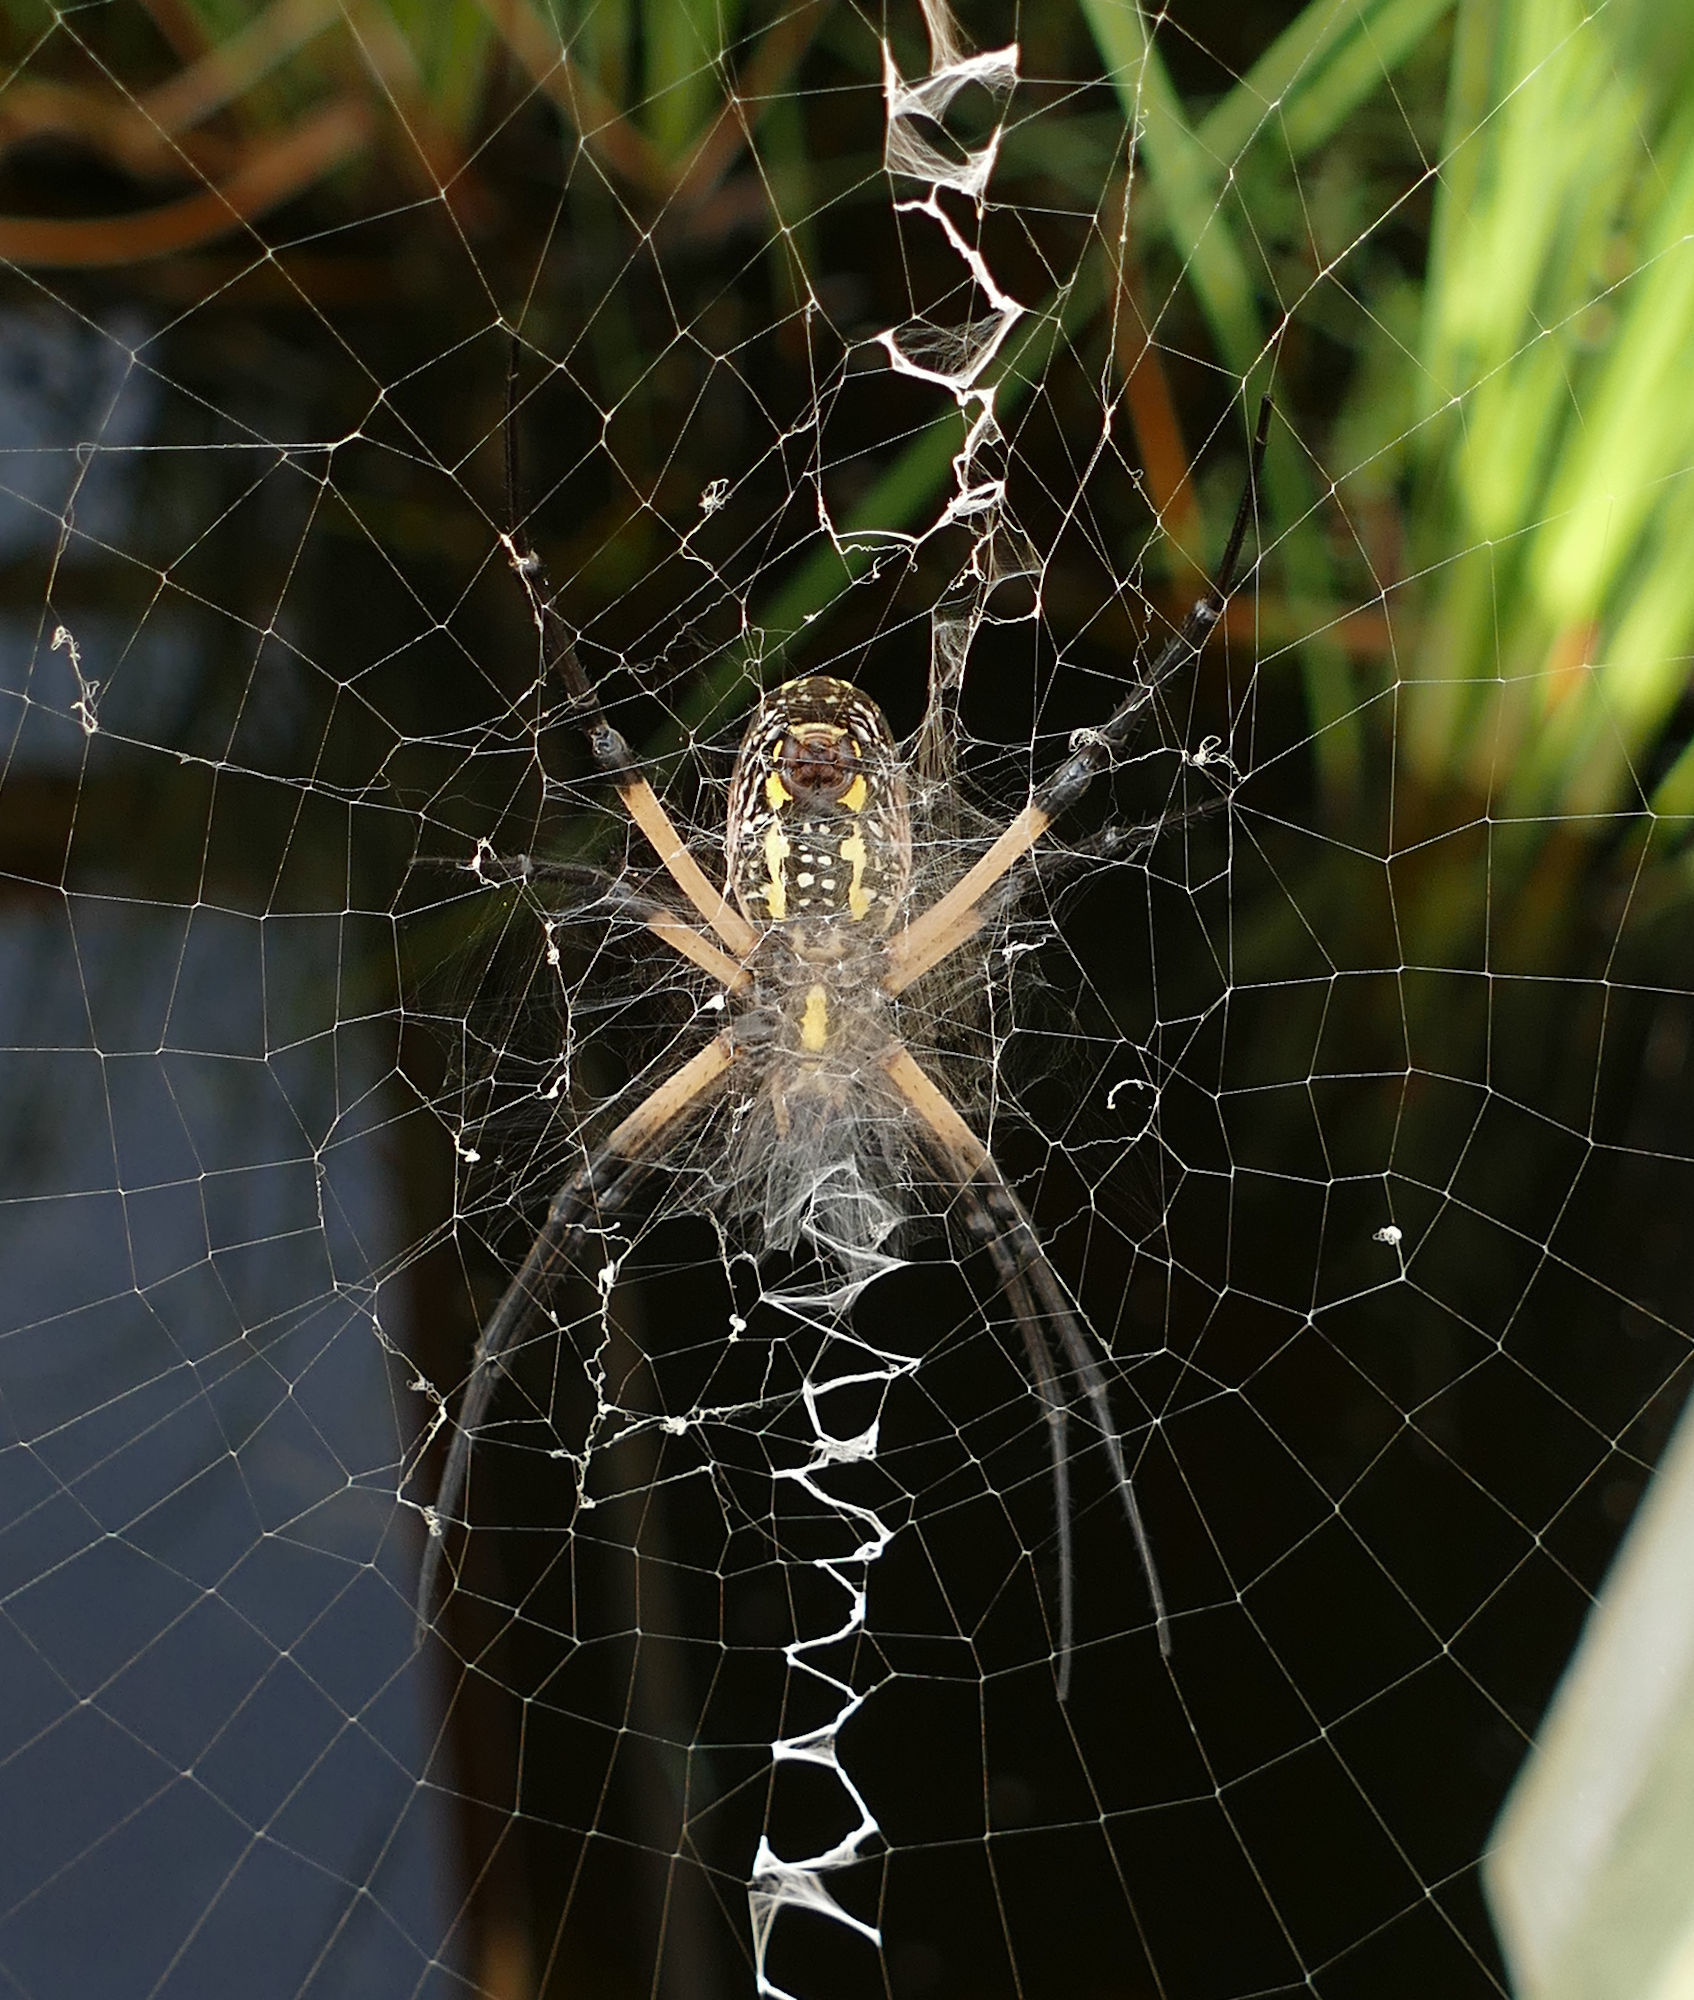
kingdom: Animalia
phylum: Arthropoda
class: Arachnida
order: Araneae
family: Araneidae
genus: Argiope
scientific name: Argiope aurantia
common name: Orb weavers
